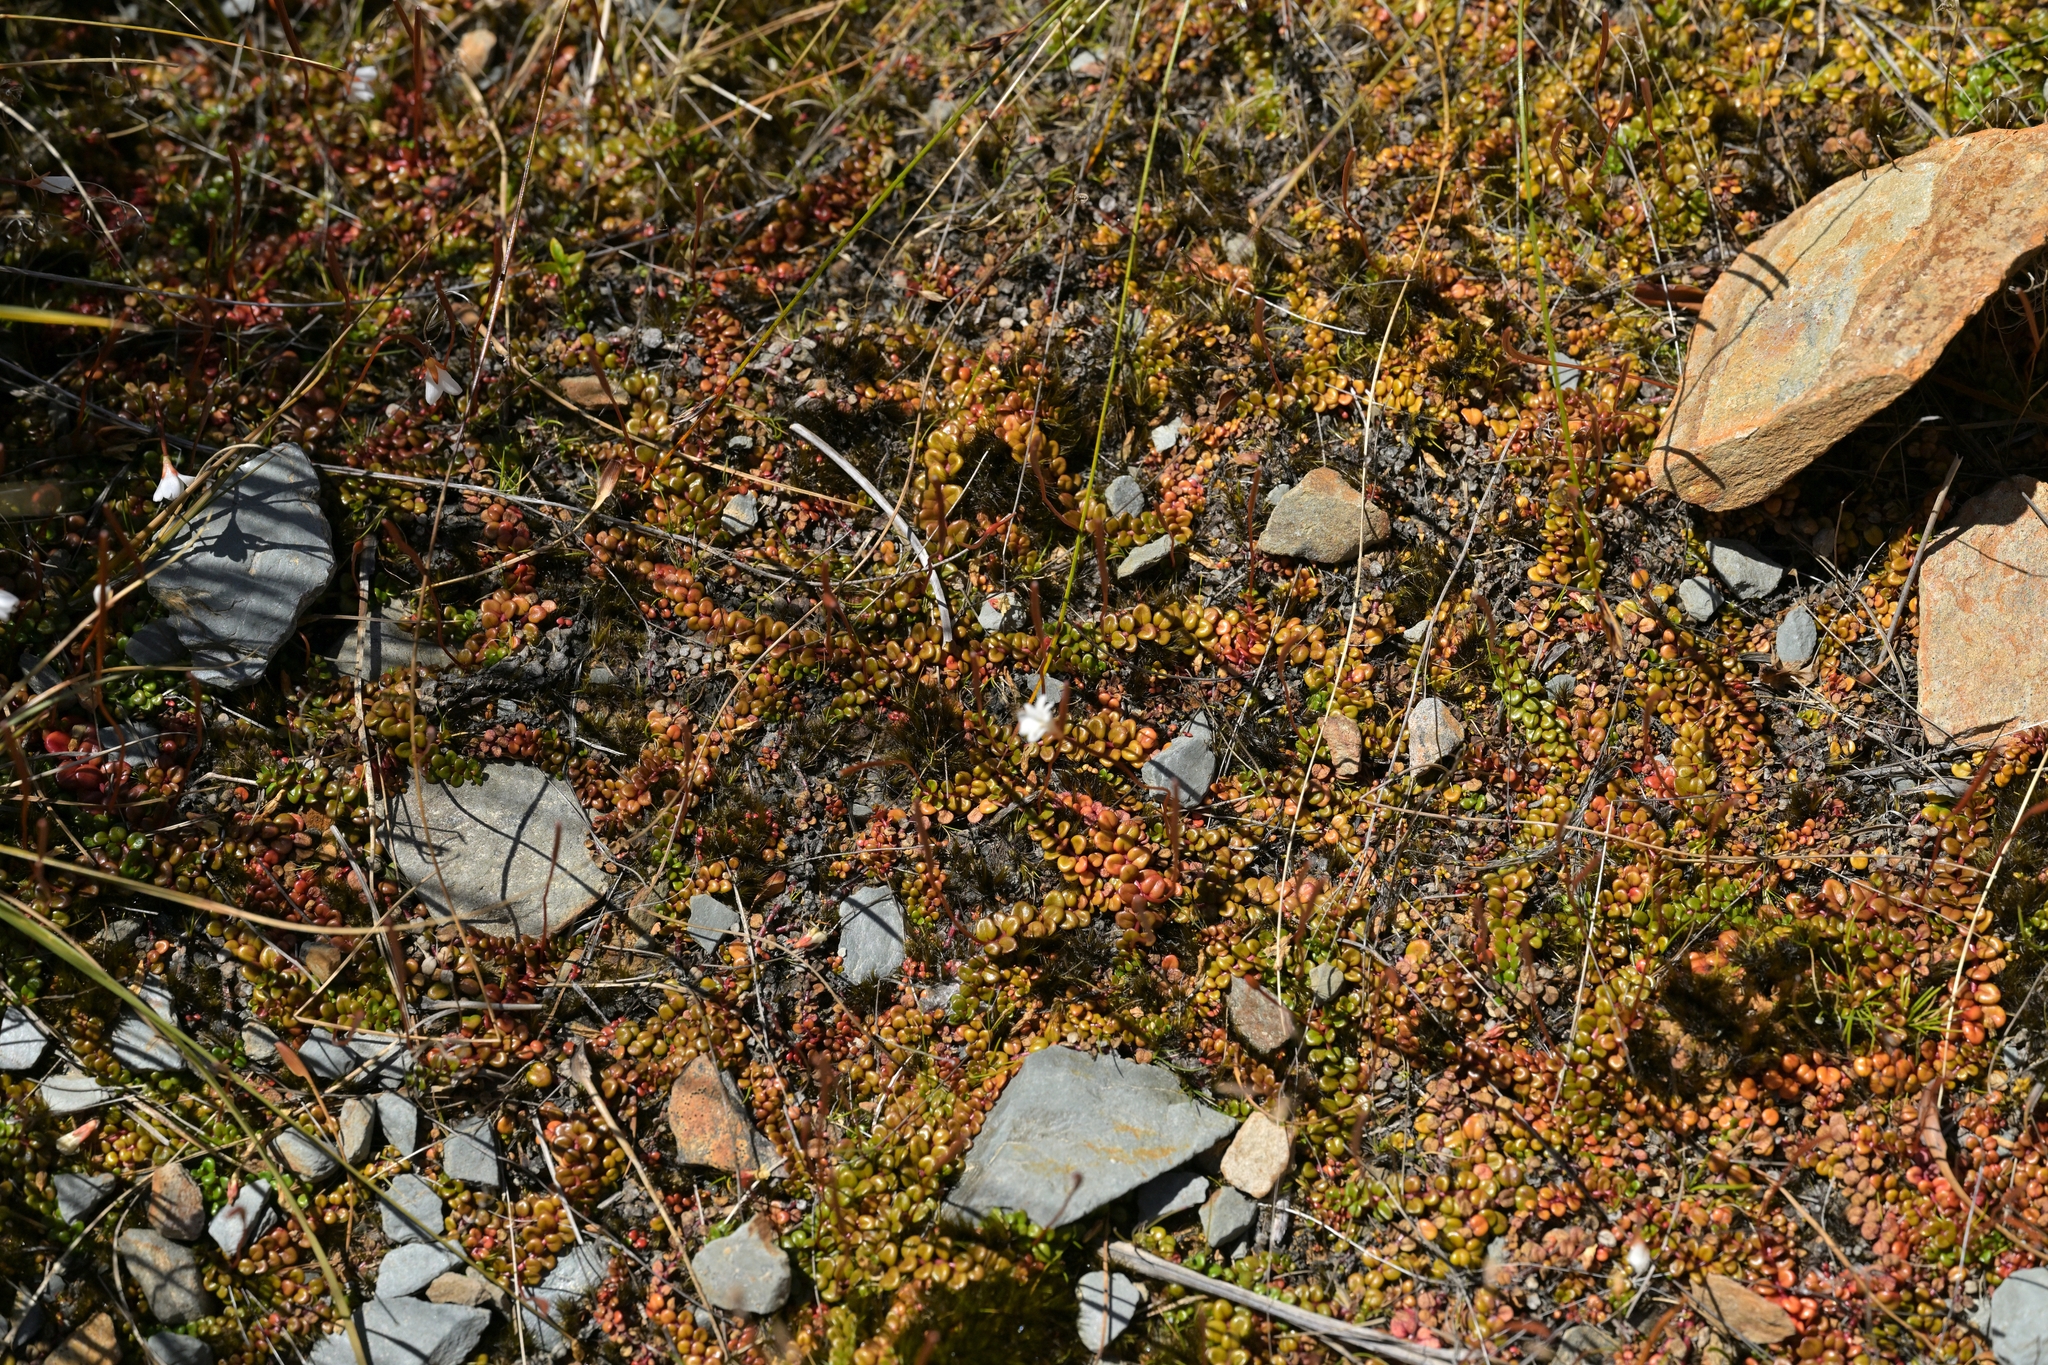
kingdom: Plantae
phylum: Tracheophyta
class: Magnoliopsida
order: Myrtales
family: Onagraceae
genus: Epilobium
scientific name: Epilobium pernitens
